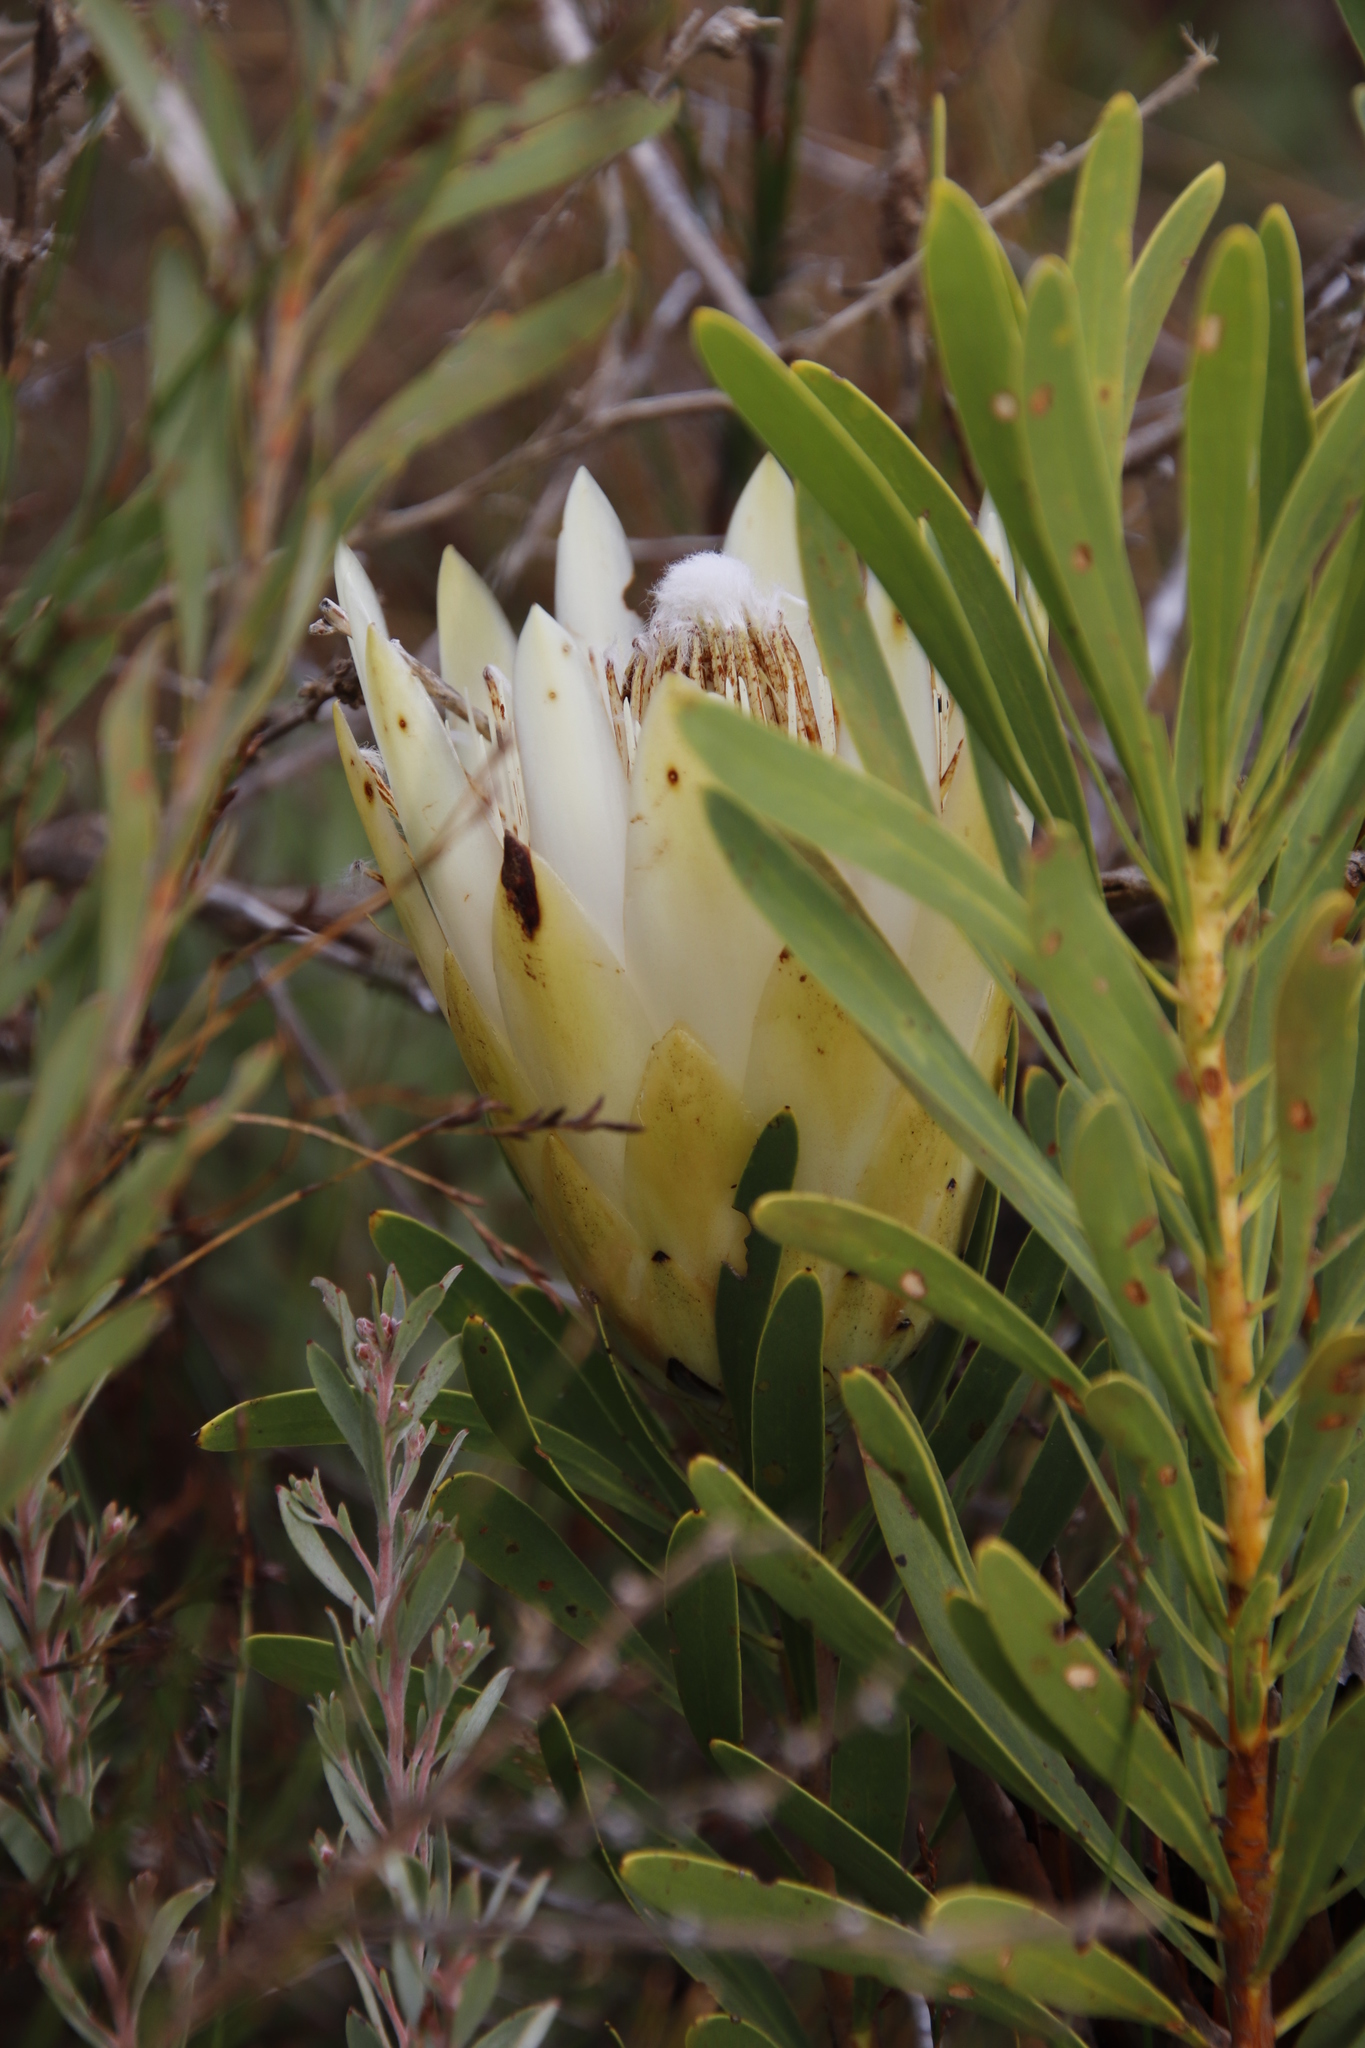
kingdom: Plantae
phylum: Tracheophyta
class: Magnoliopsida
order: Proteales
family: Proteaceae
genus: Protea
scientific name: Protea repens
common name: Sugarbush
